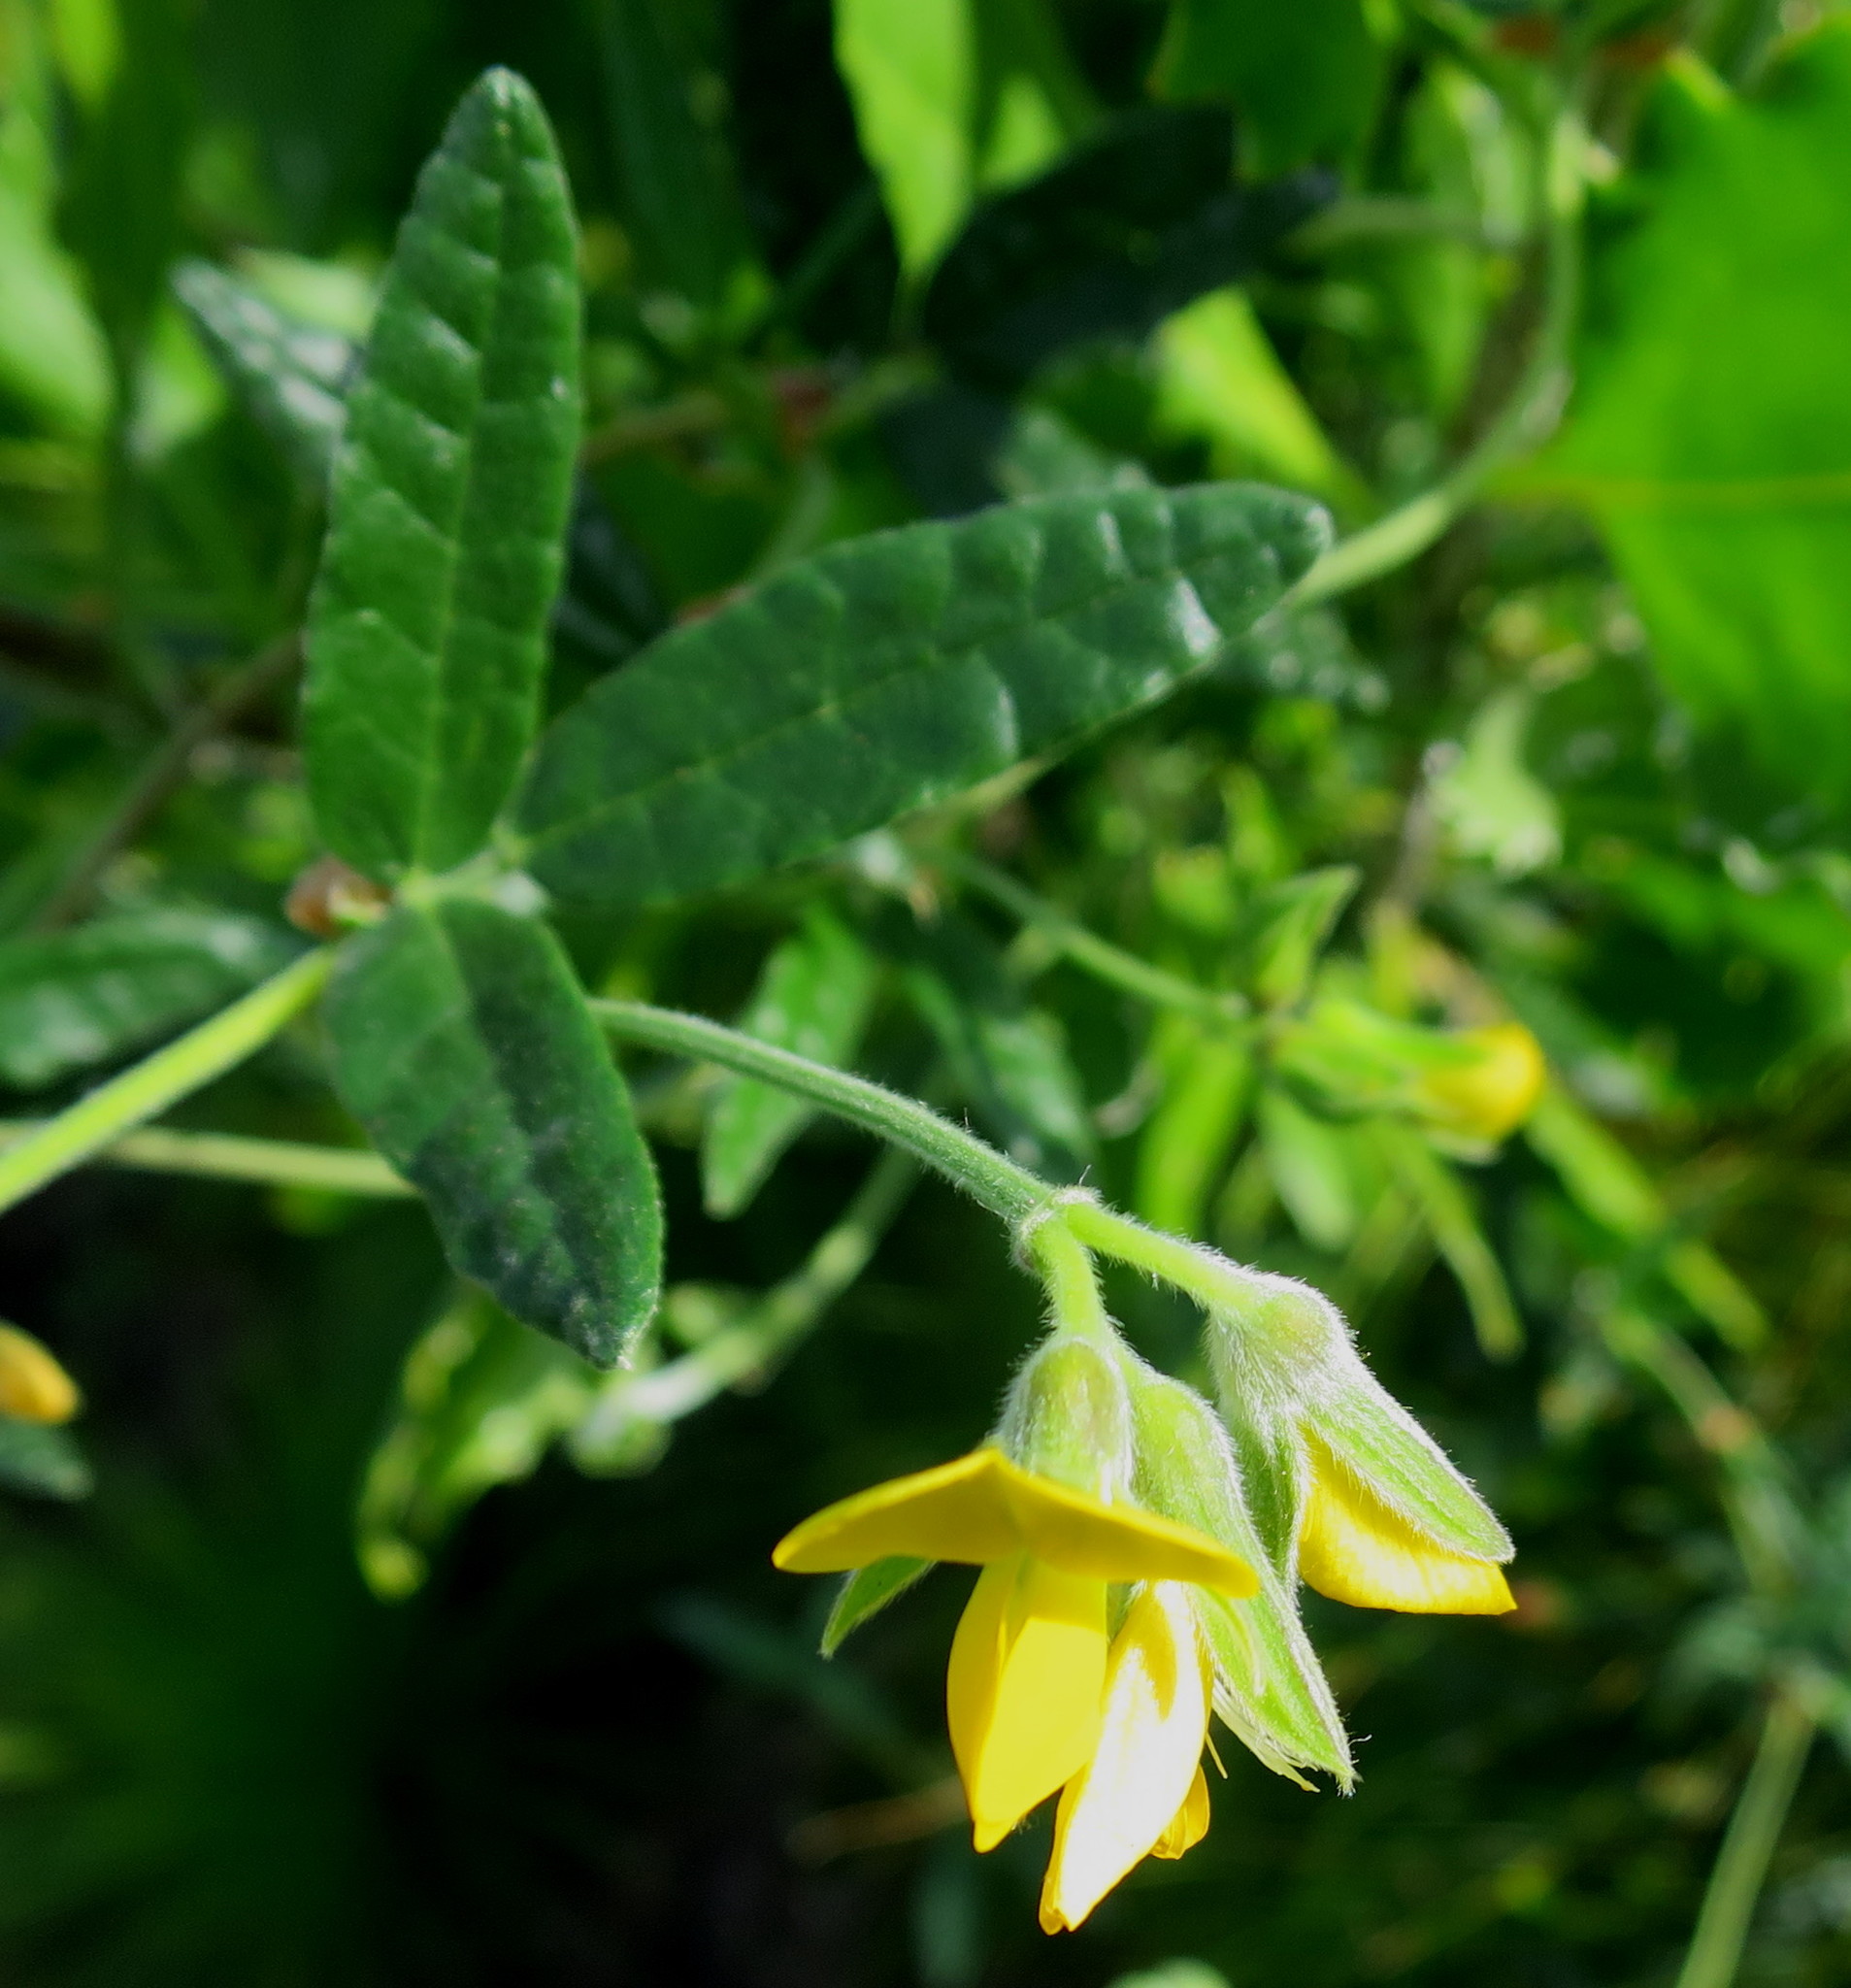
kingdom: Plantae
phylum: Tracheophyta
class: Magnoliopsida
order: Fabales
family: Fabaceae
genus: Rhynchosia
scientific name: Rhynchosia chrysoscias
